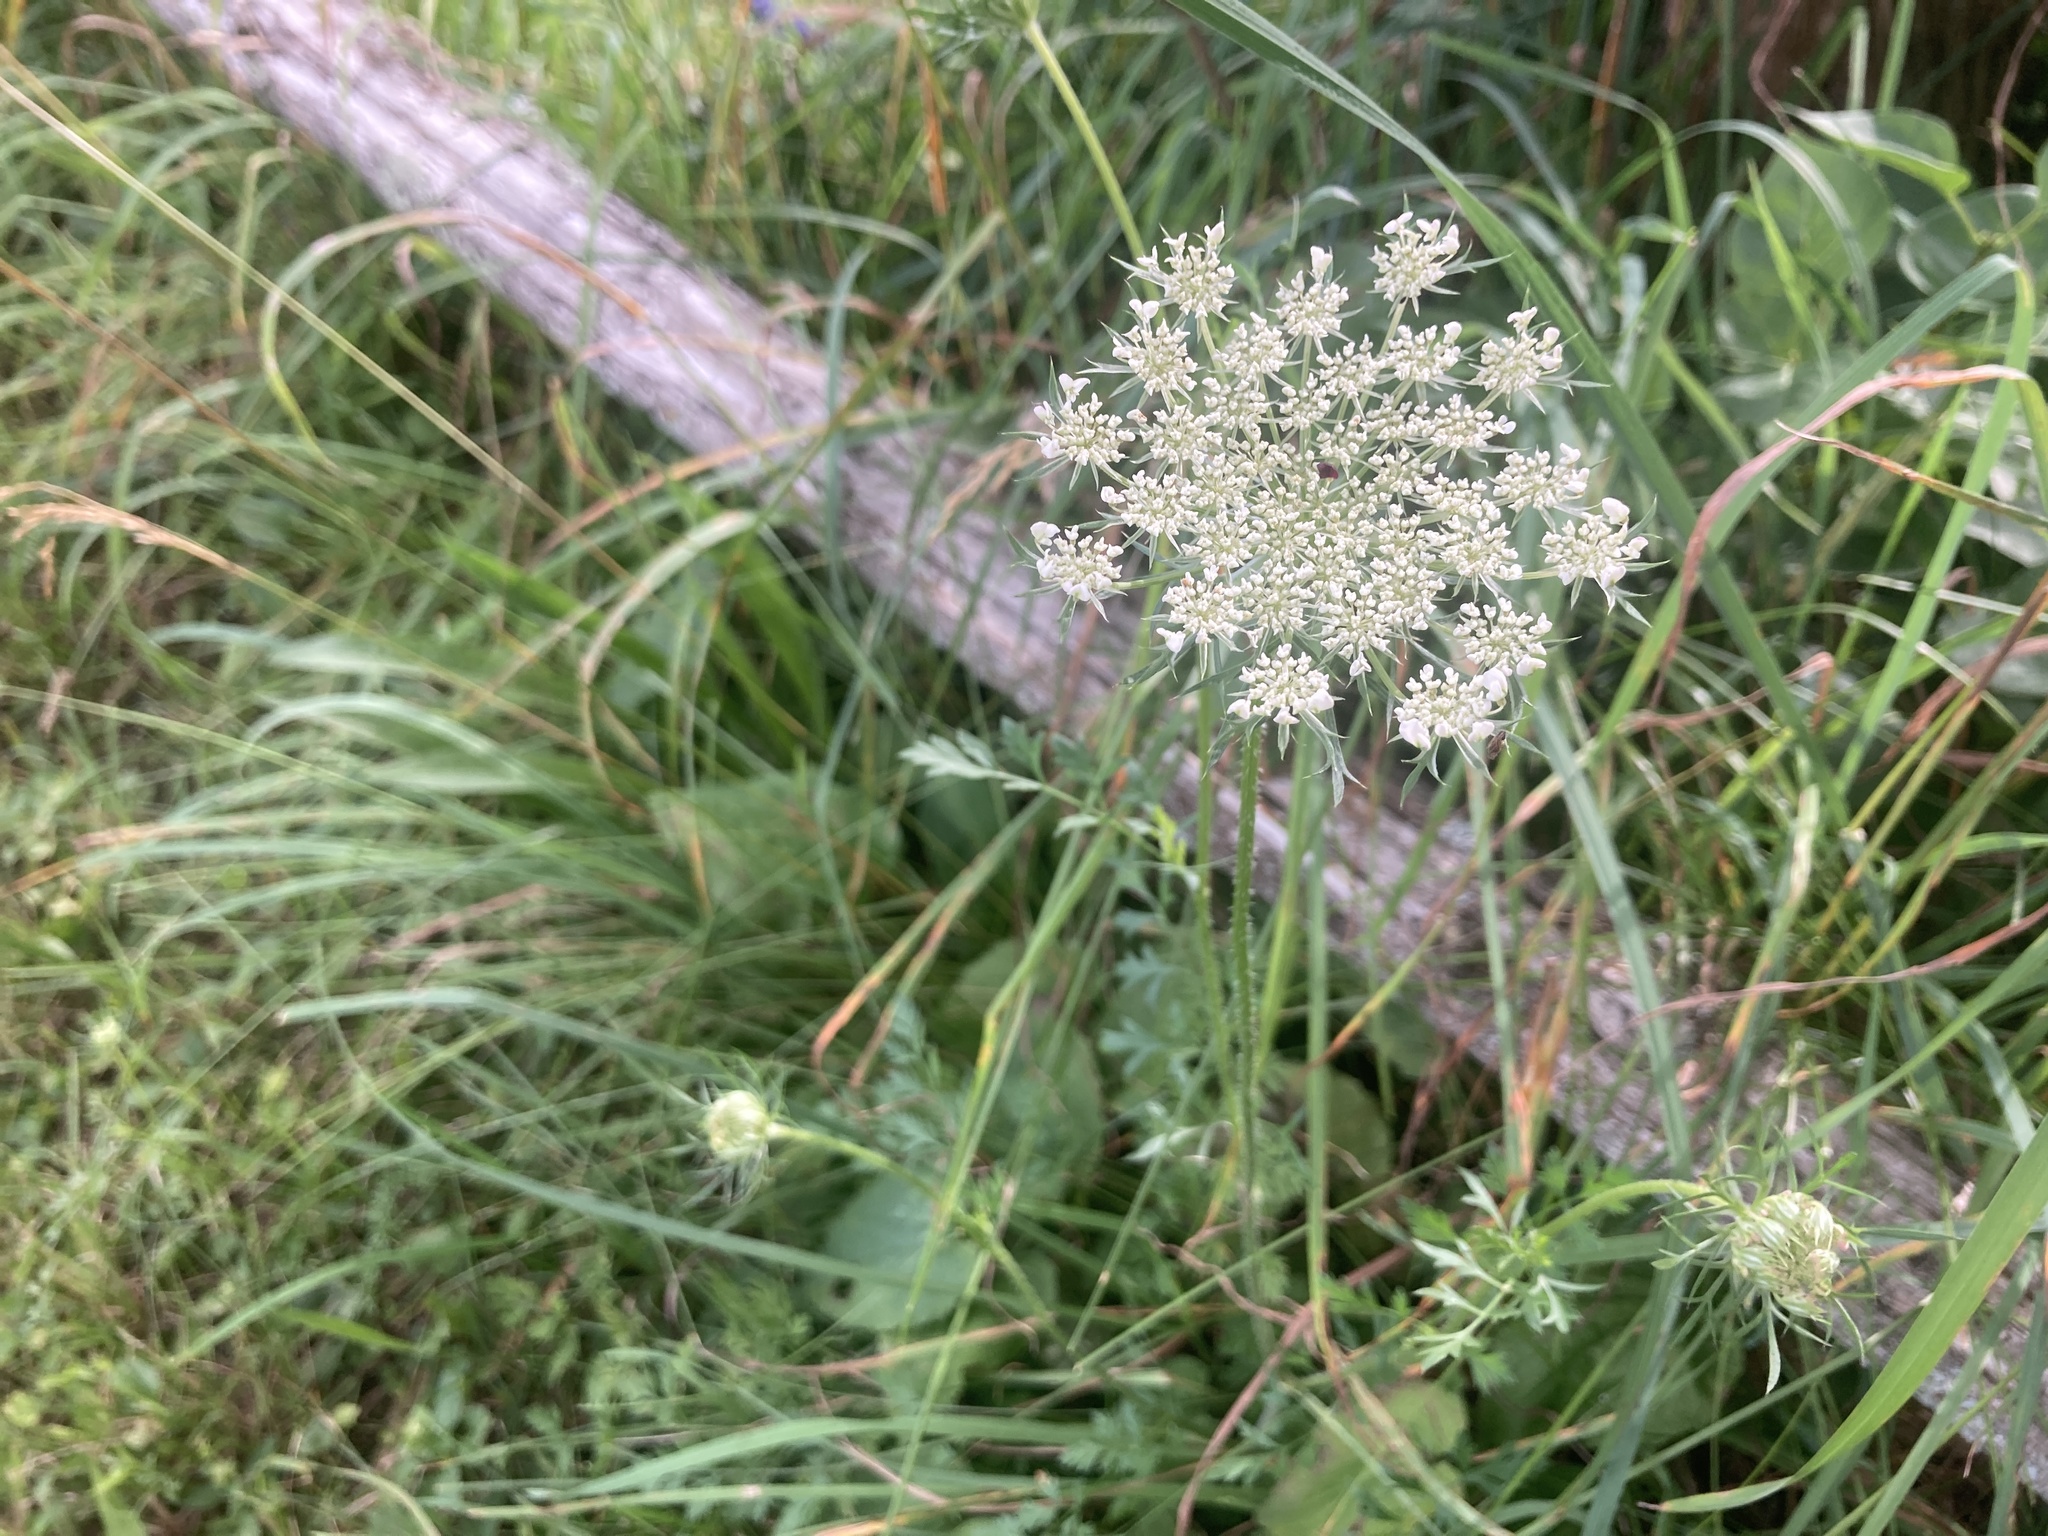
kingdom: Plantae
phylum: Tracheophyta
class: Magnoliopsida
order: Apiales
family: Apiaceae
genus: Daucus
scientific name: Daucus carota
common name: Wild carrot
